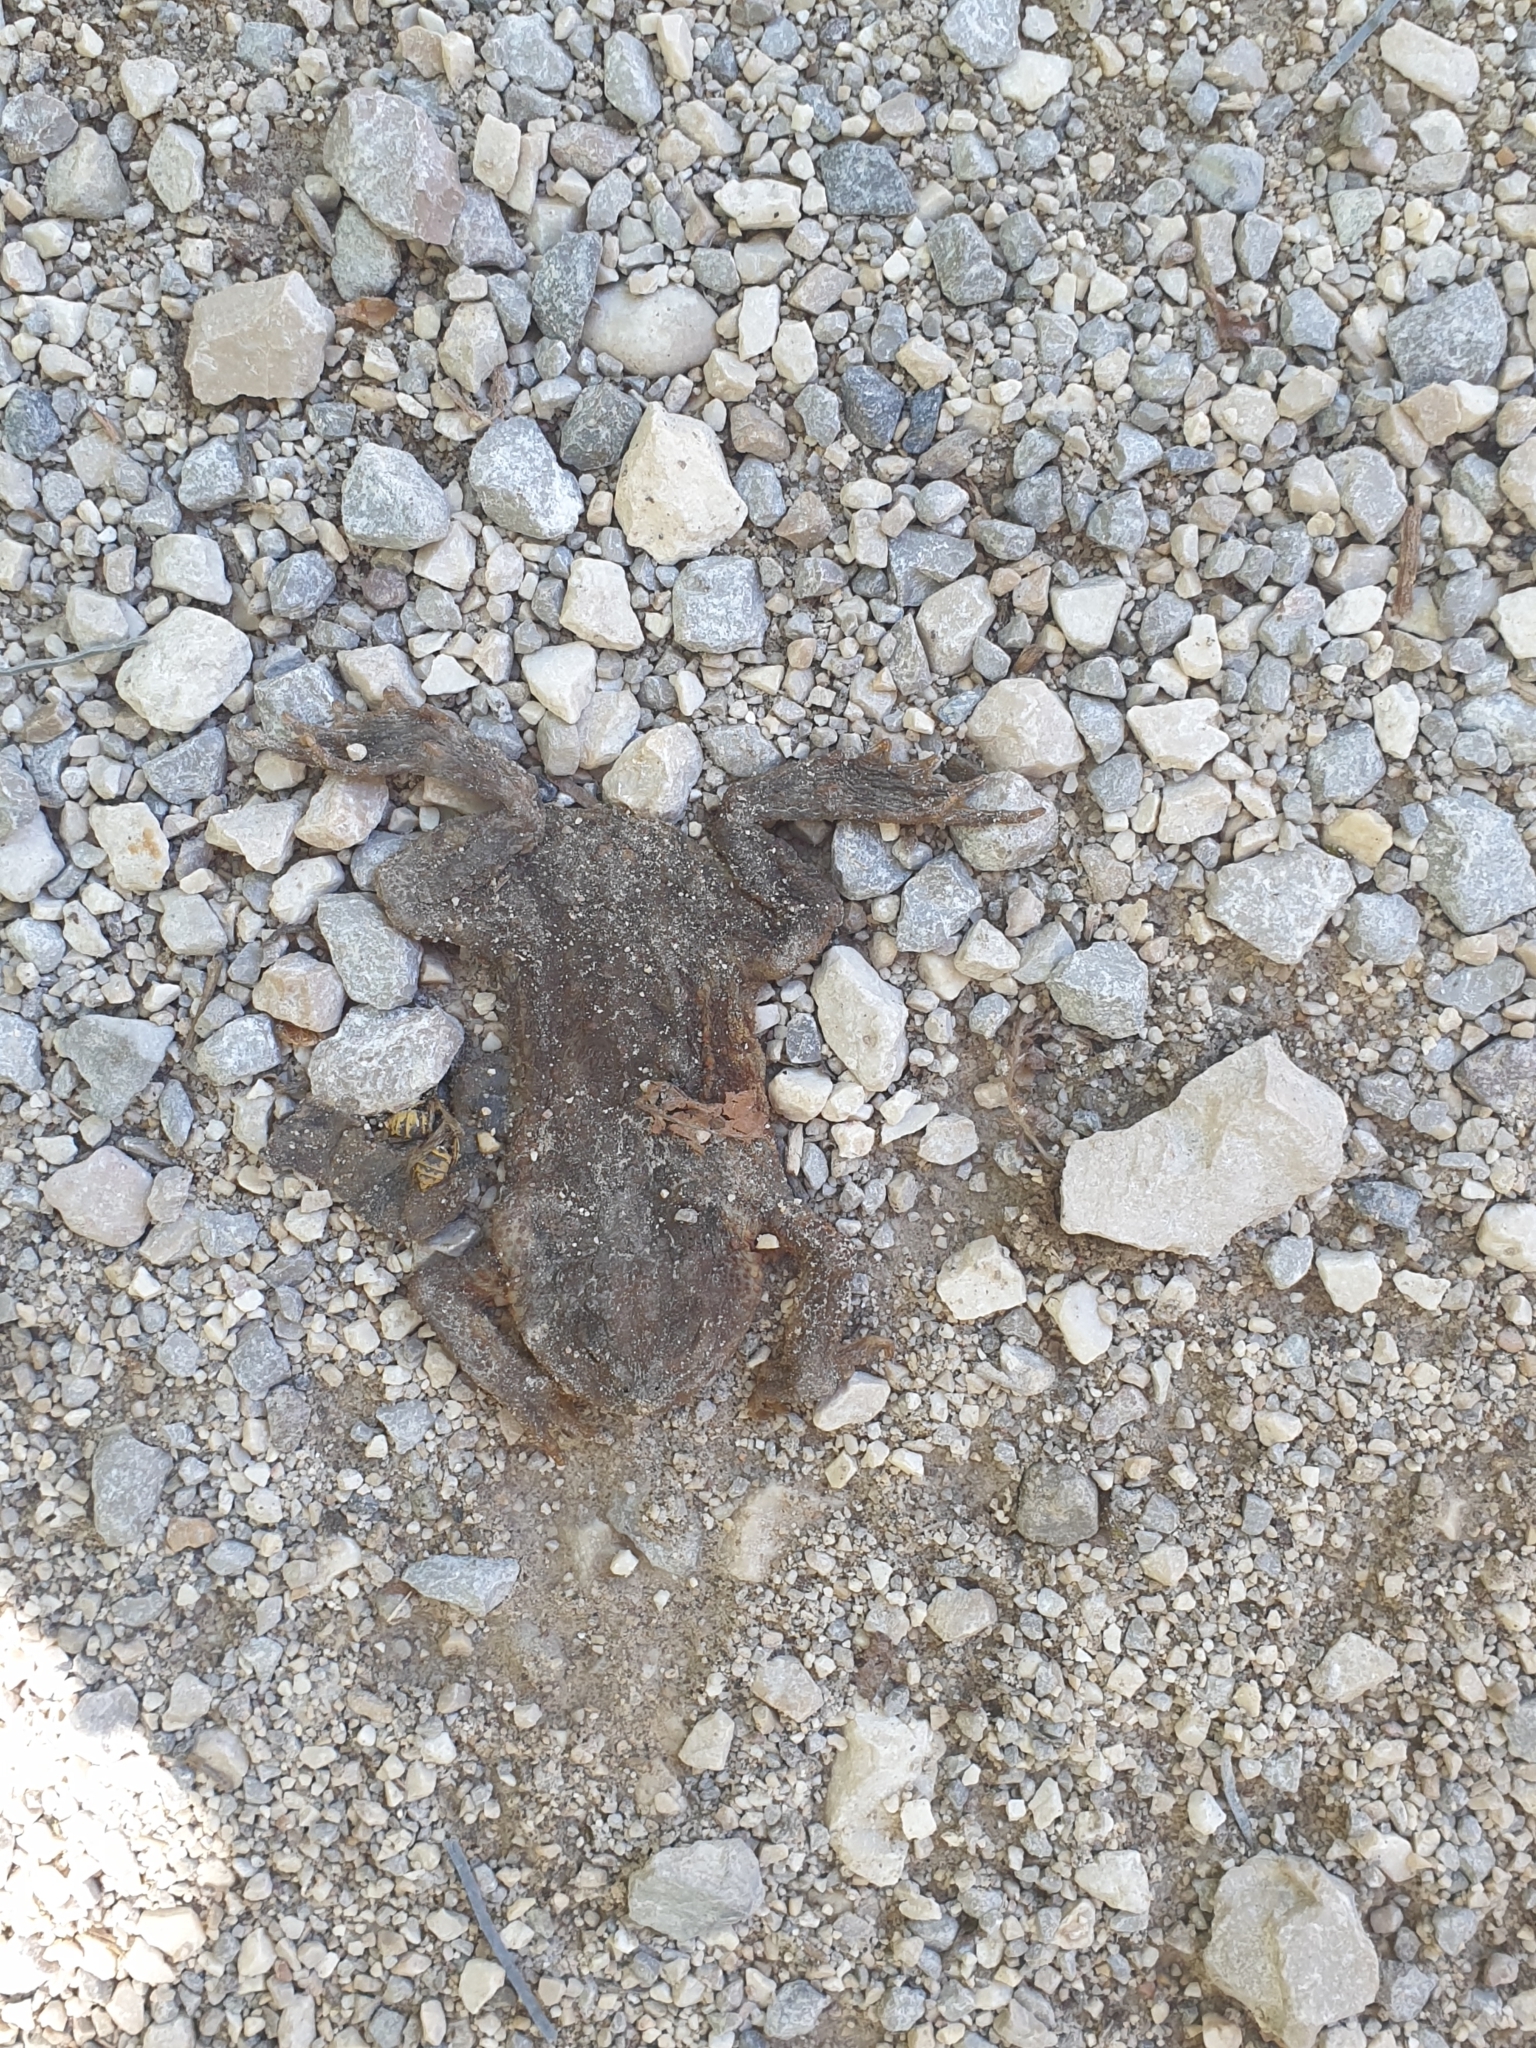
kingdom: Animalia
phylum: Chordata
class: Amphibia
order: Anura
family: Bufonidae
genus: Bufo
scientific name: Bufo bufo
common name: Common toad
